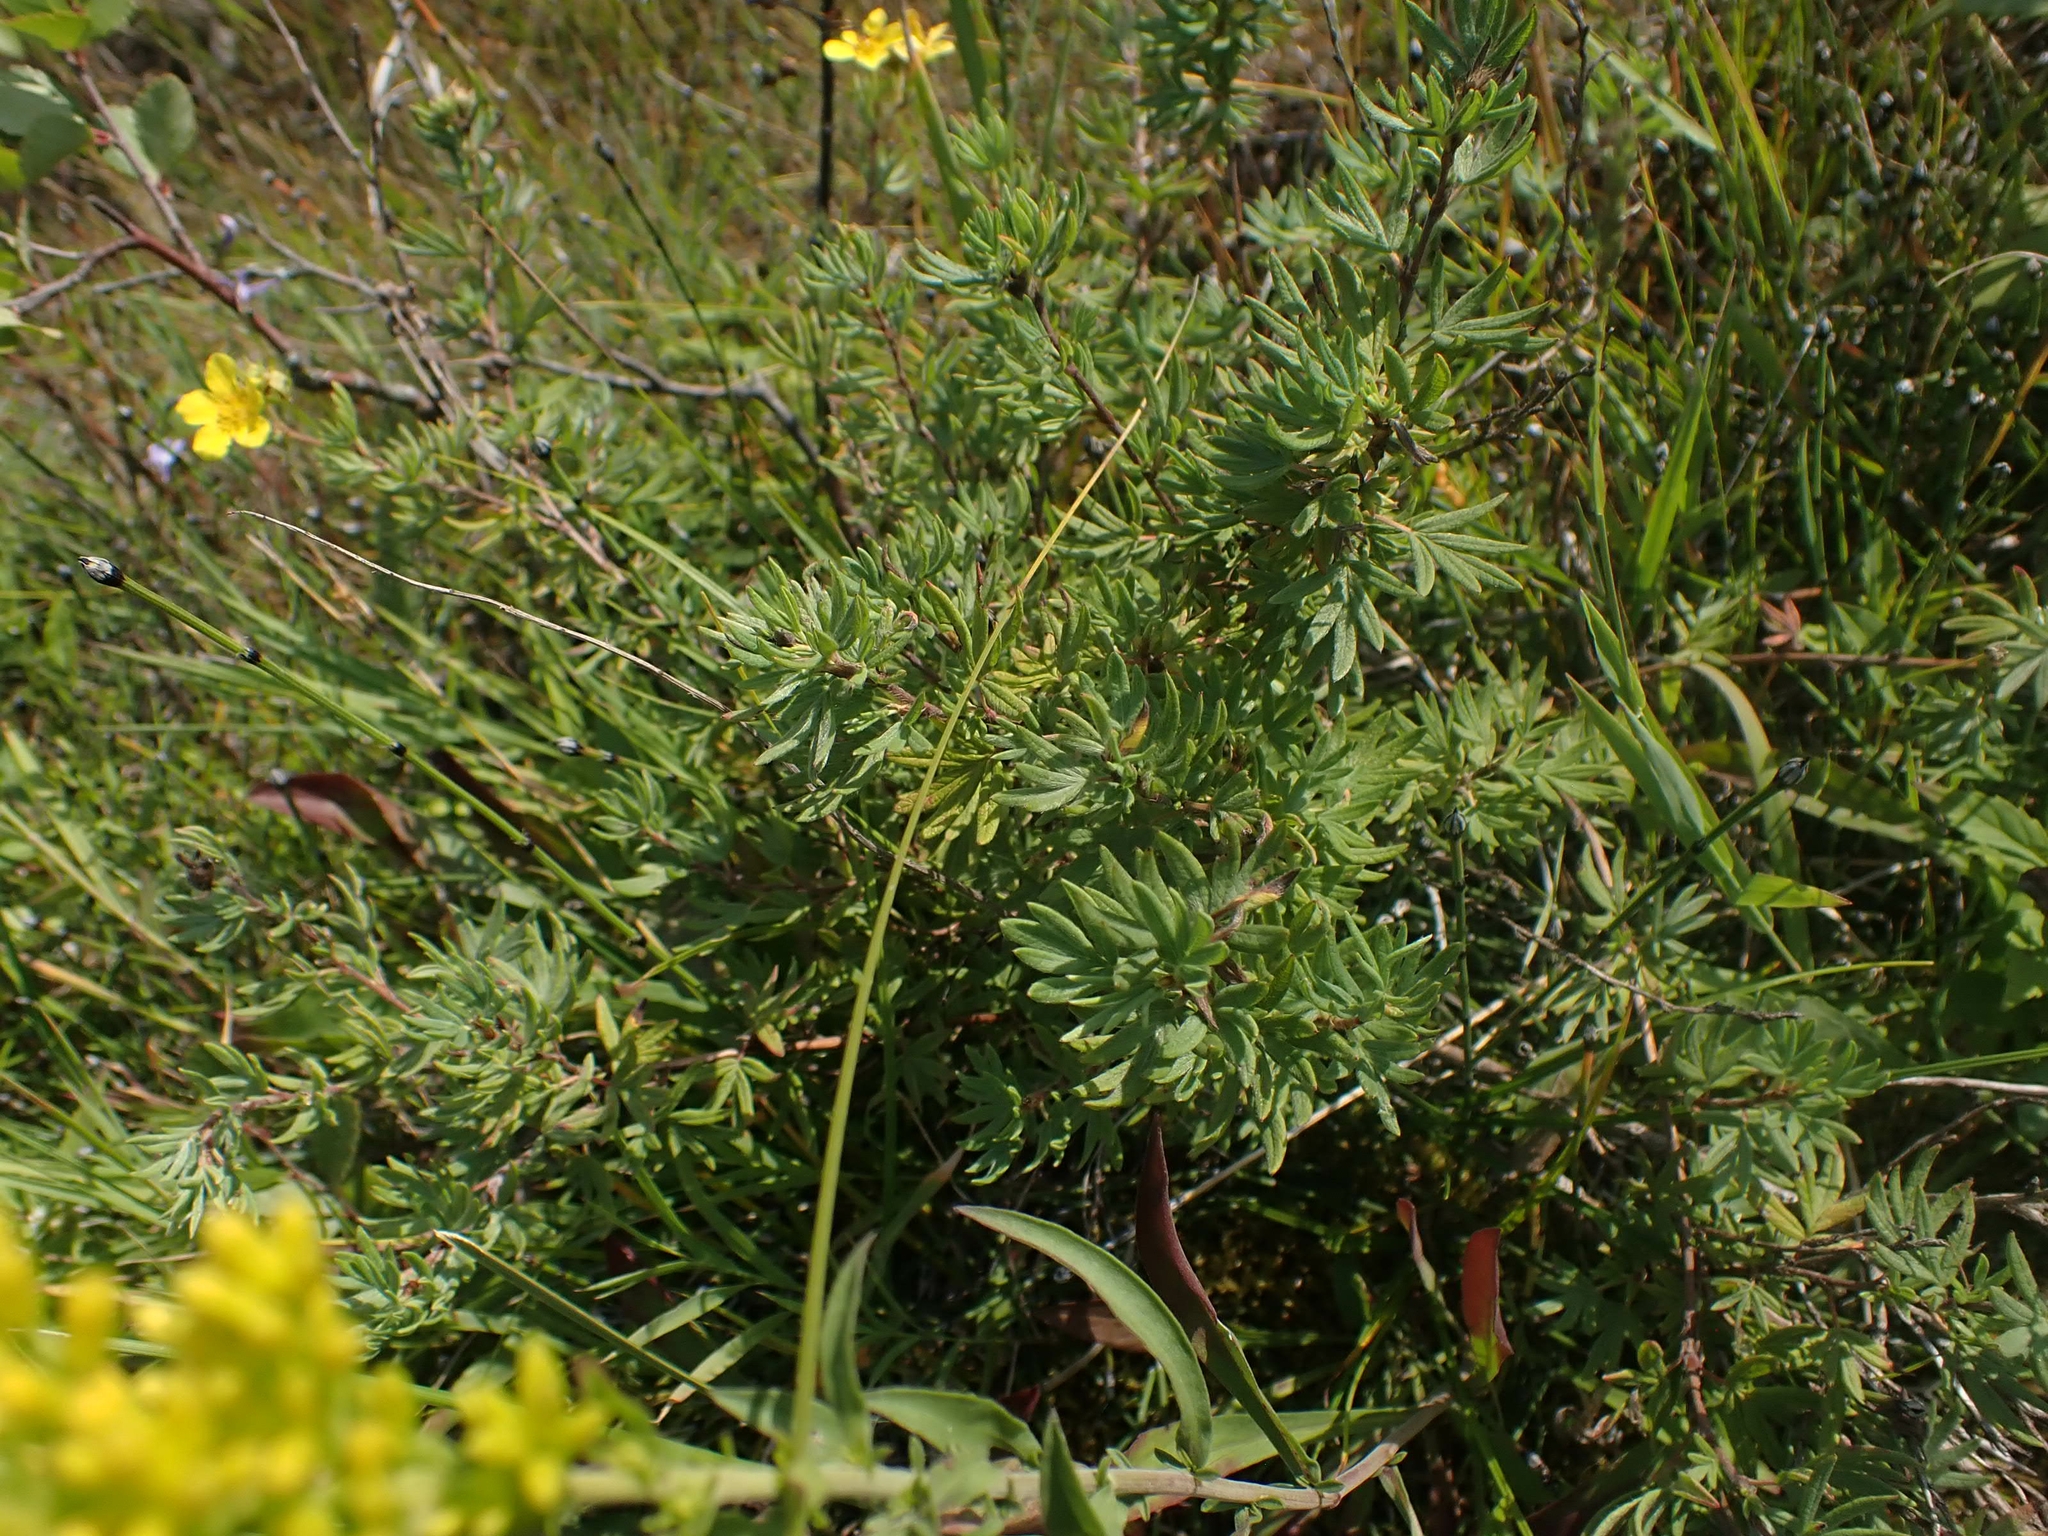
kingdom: Plantae
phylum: Tracheophyta
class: Magnoliopsida
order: Rosales
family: Rosaceae
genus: Dasiphora
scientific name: Dasiphora fruticosa
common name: Shrubby cinquefoil
